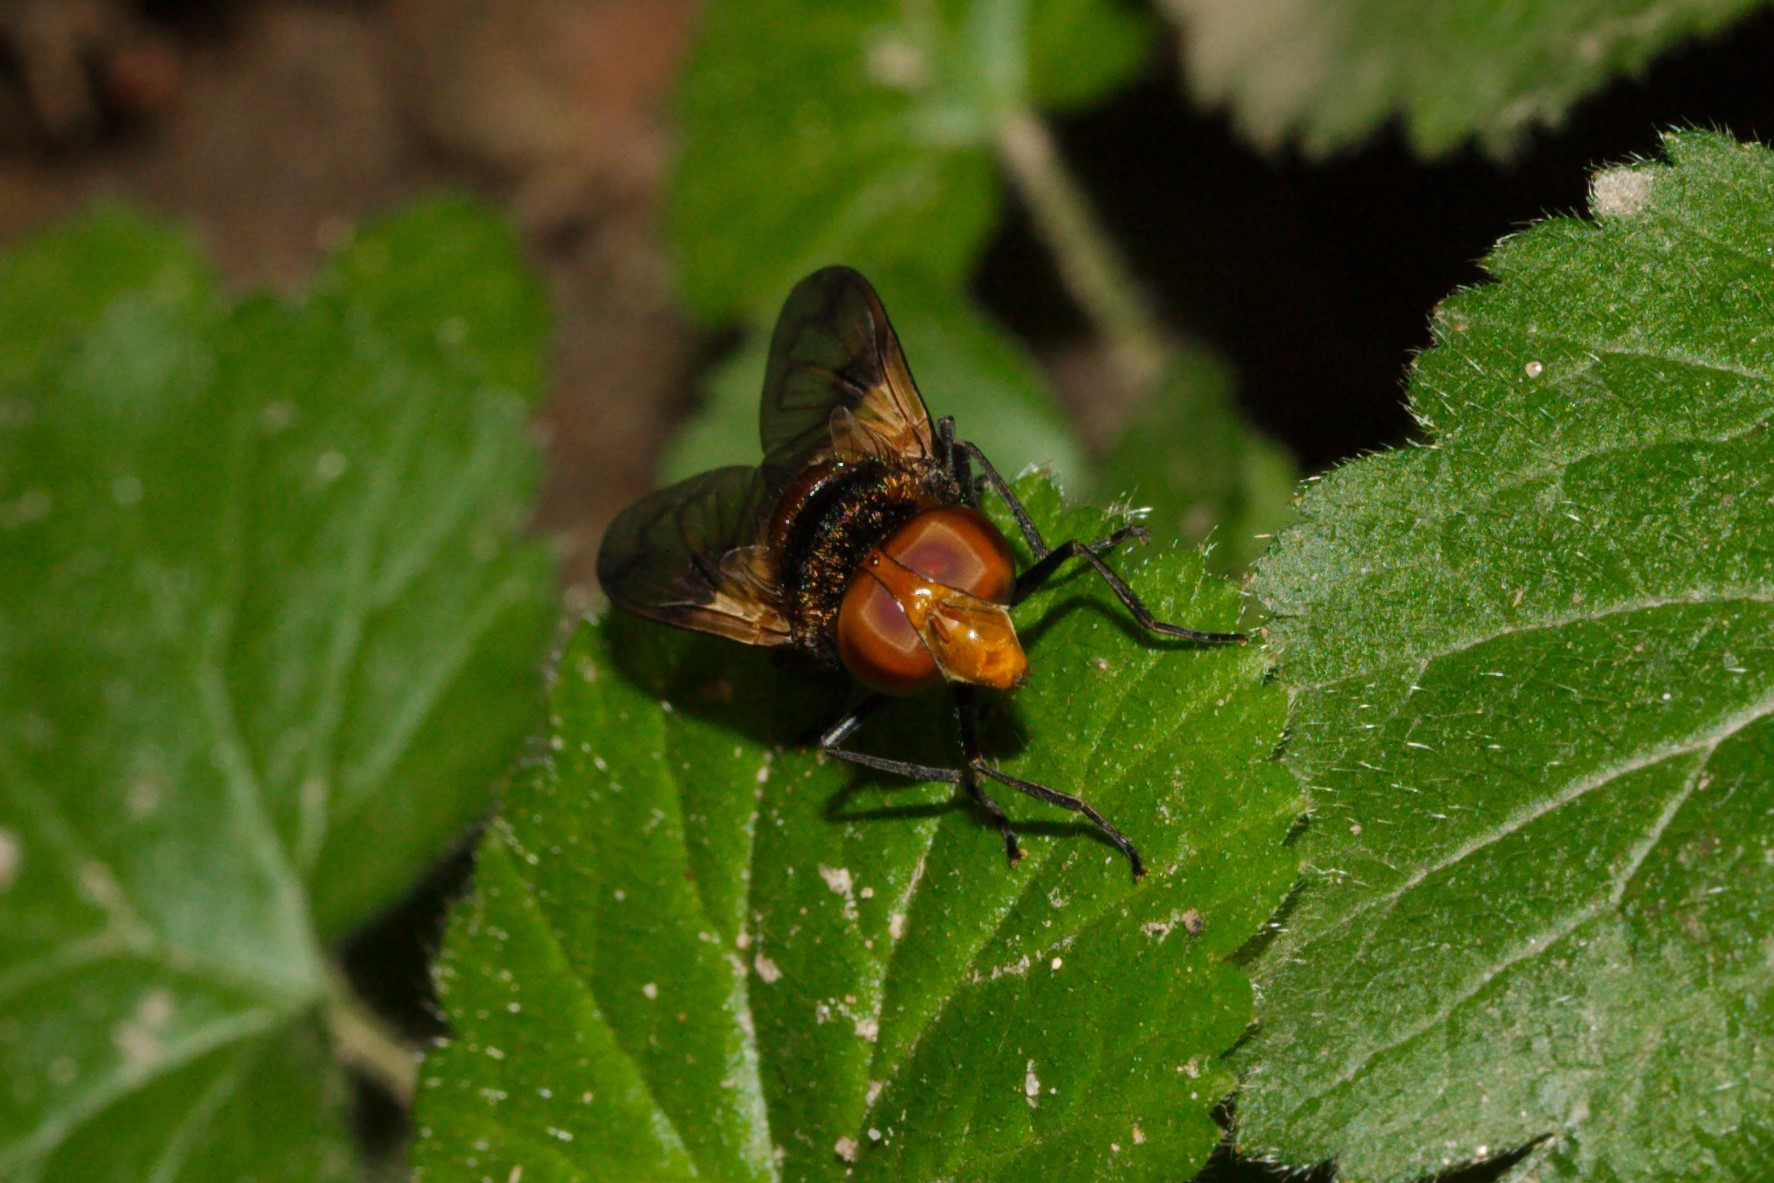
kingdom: Animalia
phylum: Arthropoda
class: Insecta
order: Diptera
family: Syrphidae
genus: Volucella
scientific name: Volucella pellucens
